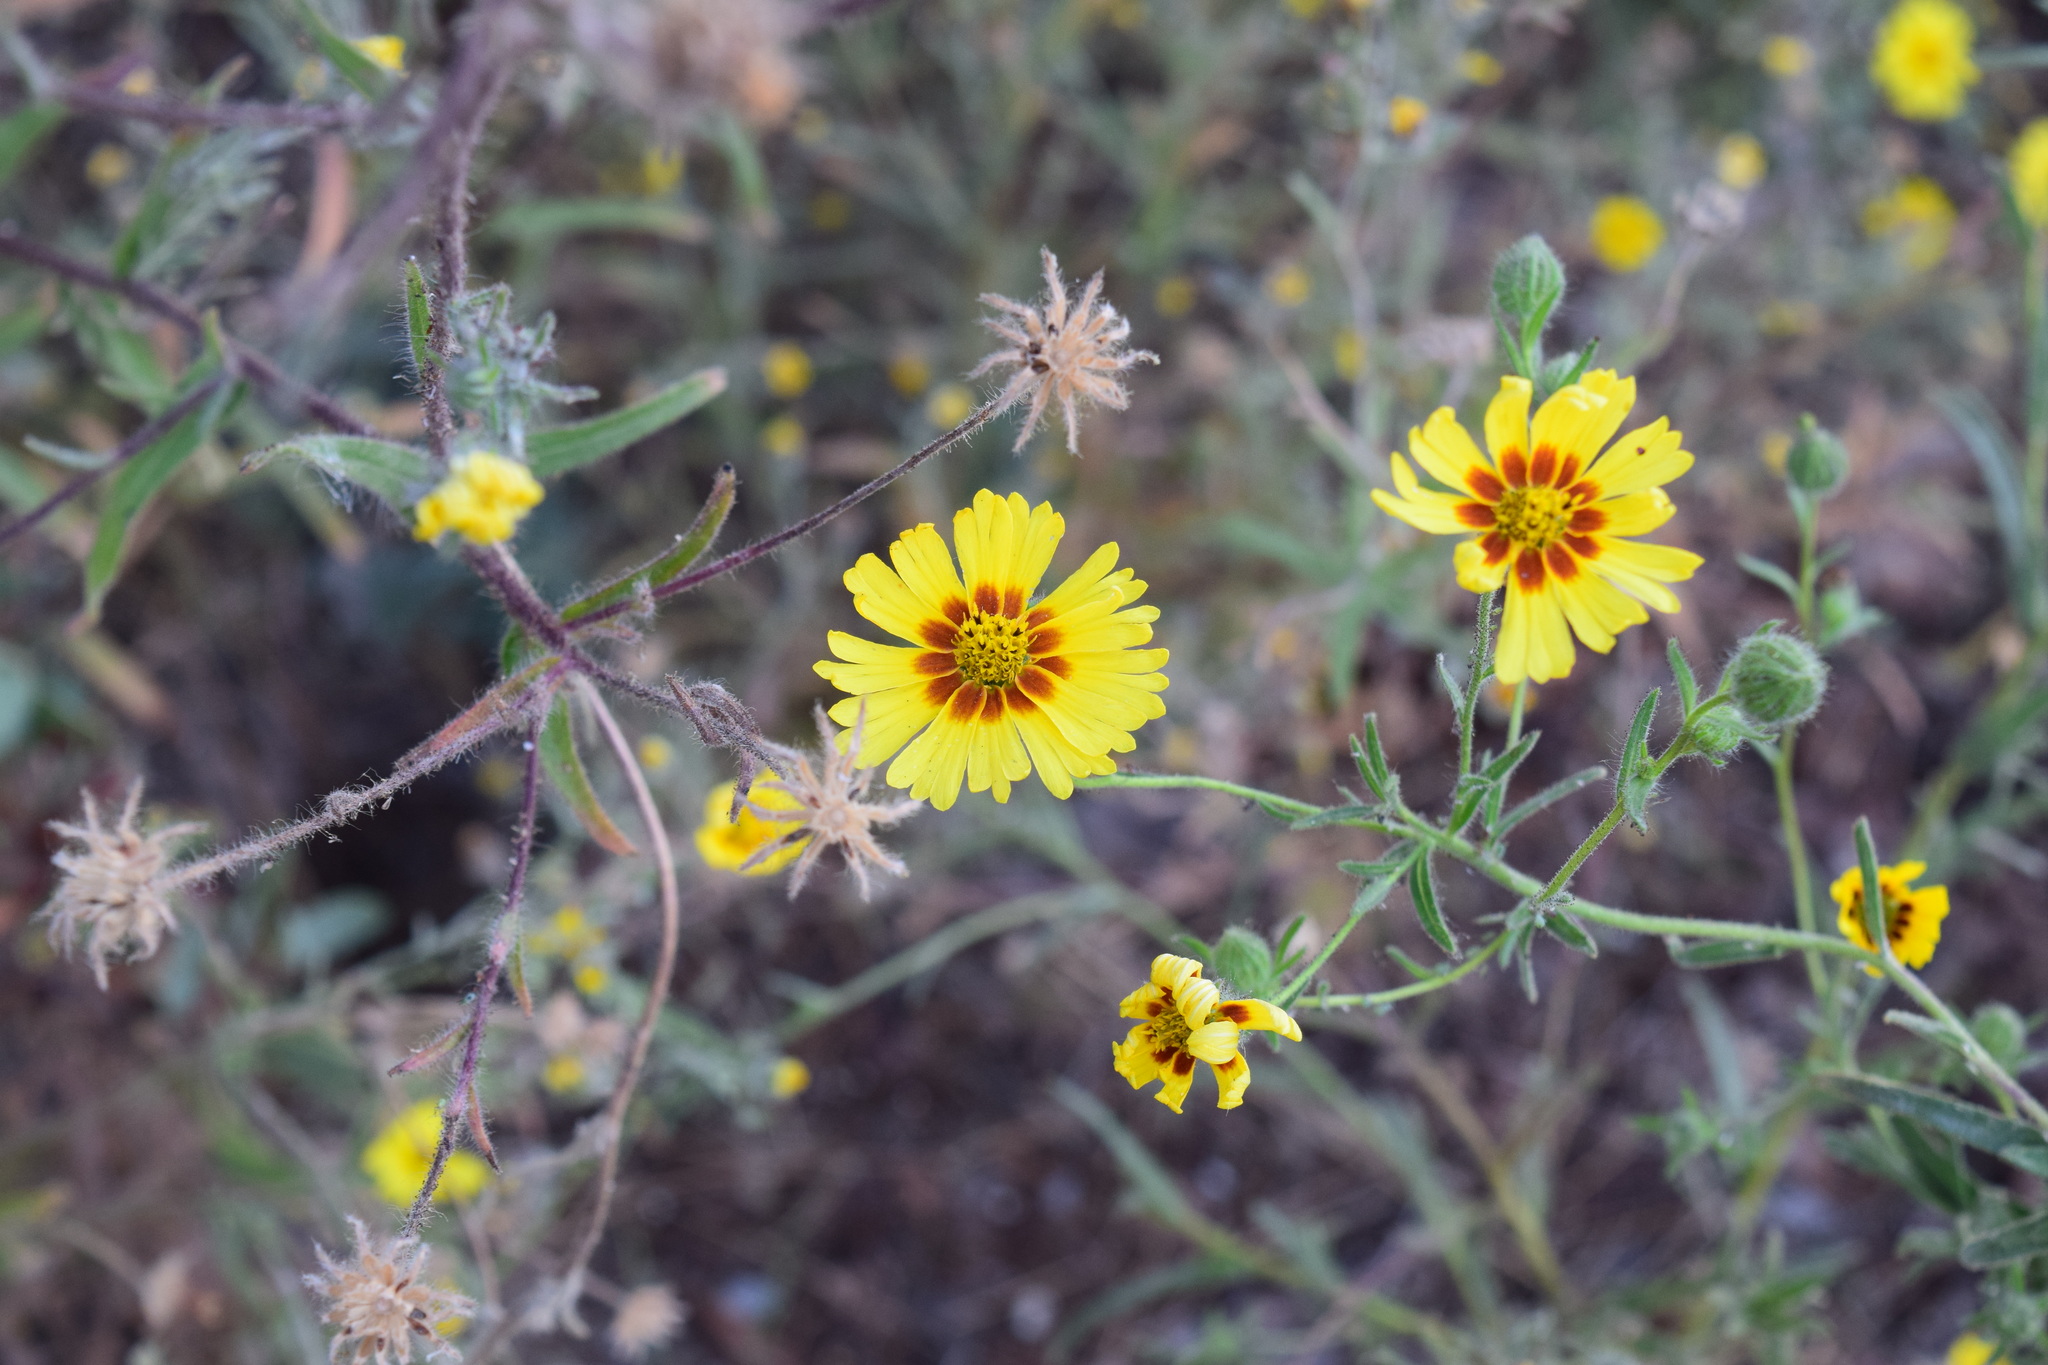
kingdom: Plantae
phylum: Tracheophyta
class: Magnoliopsida
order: Asterales
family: Asteraceae
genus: Madia
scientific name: Madia elegans
